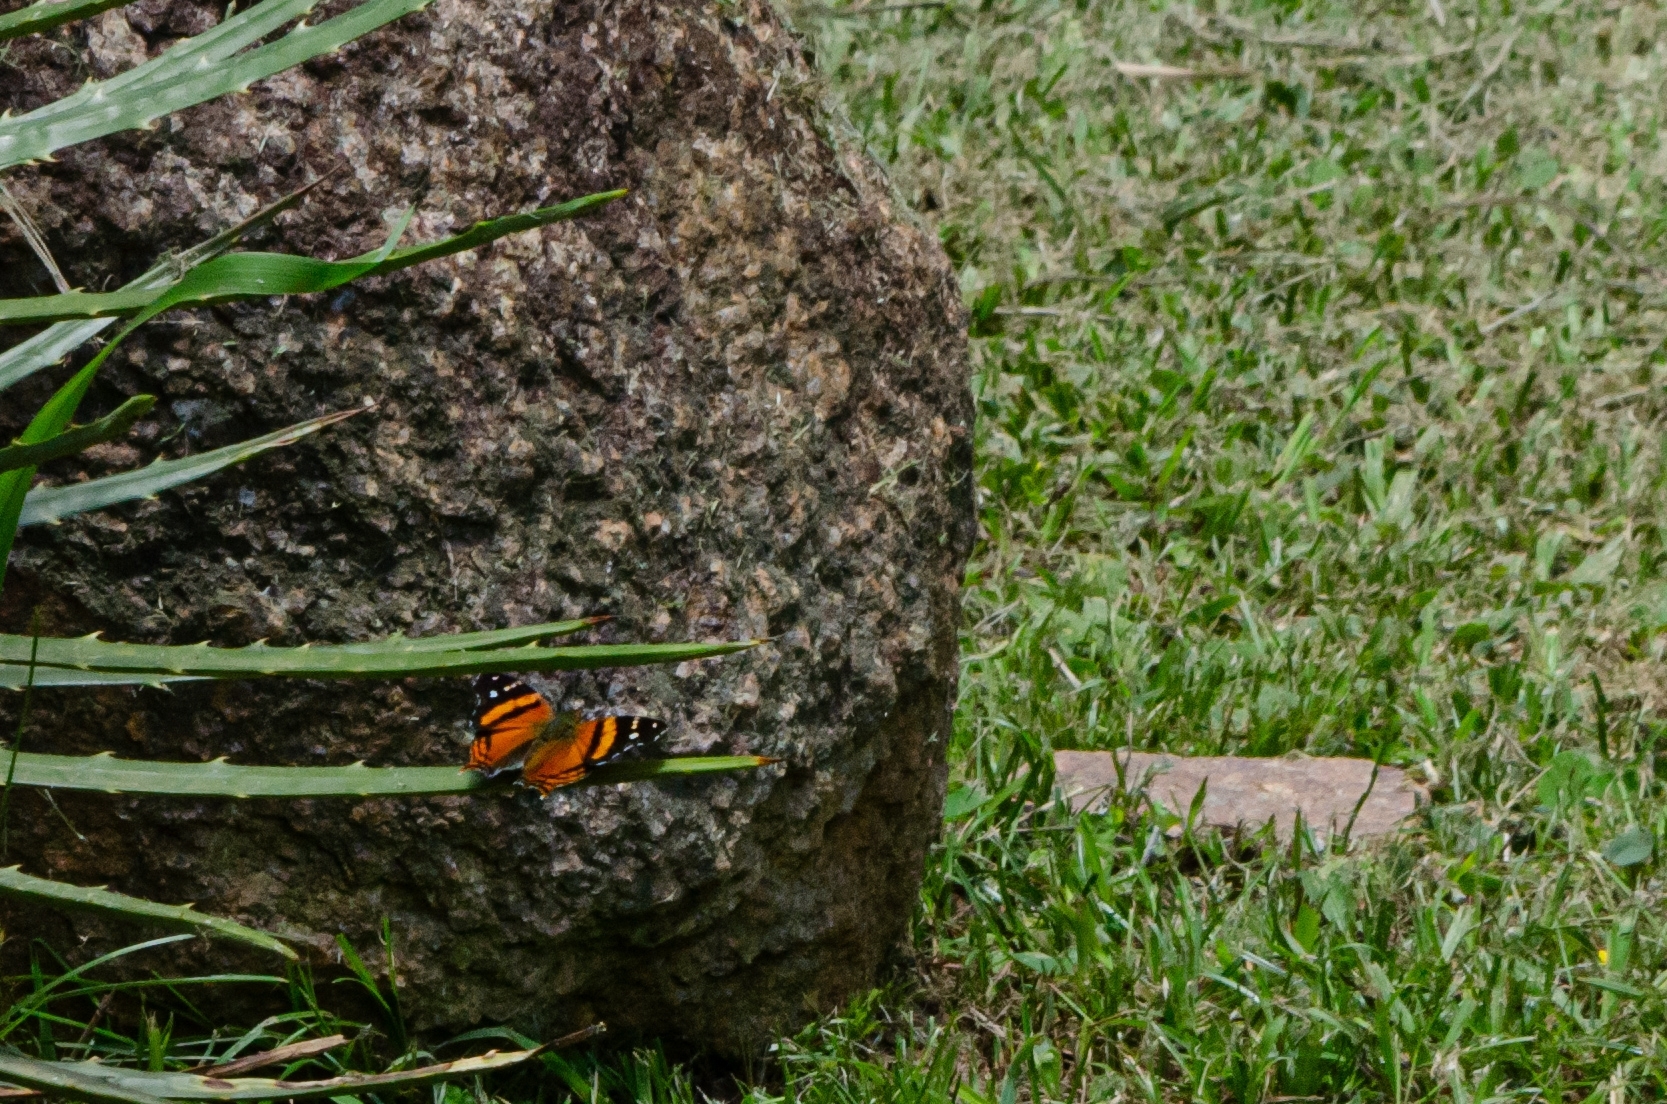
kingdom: Animalia
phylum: Arthropoda
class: Insecta
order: Lepidoptera
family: Nymphalidae
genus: Hypanartia
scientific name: Hypanartia bella
